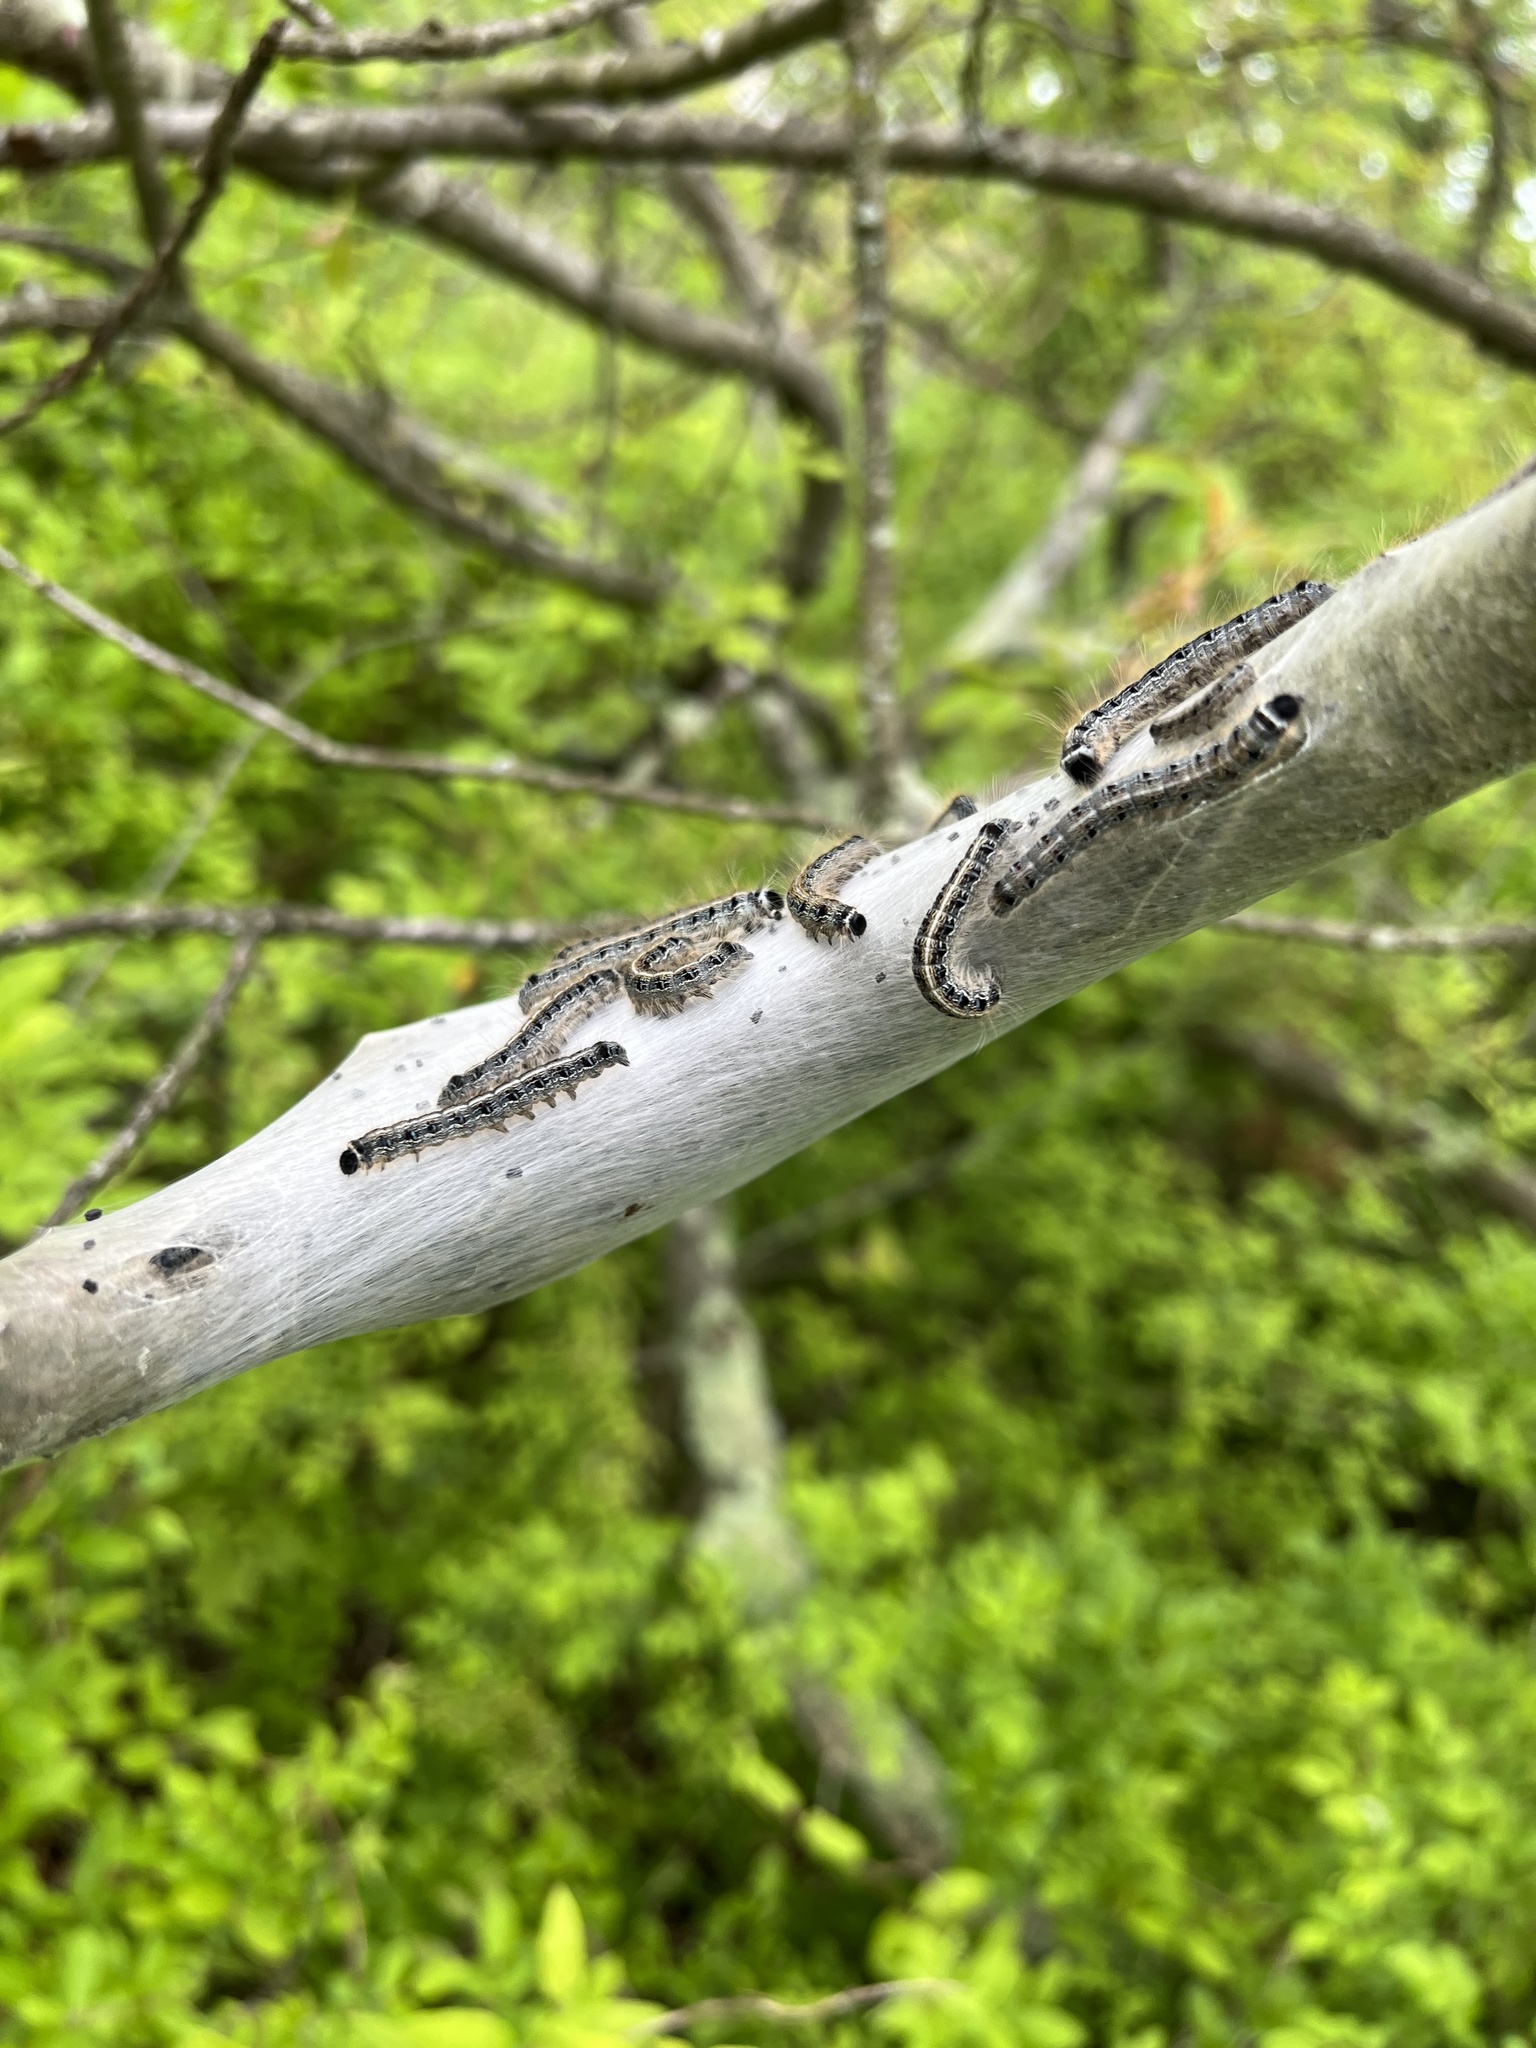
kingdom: Animalia
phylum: Arthropoda
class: Insecta
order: Lepidoptera
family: Lasiocampidae
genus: Malacosoma
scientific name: Malacosoma americana
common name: Eastern tent caterpillar moth
